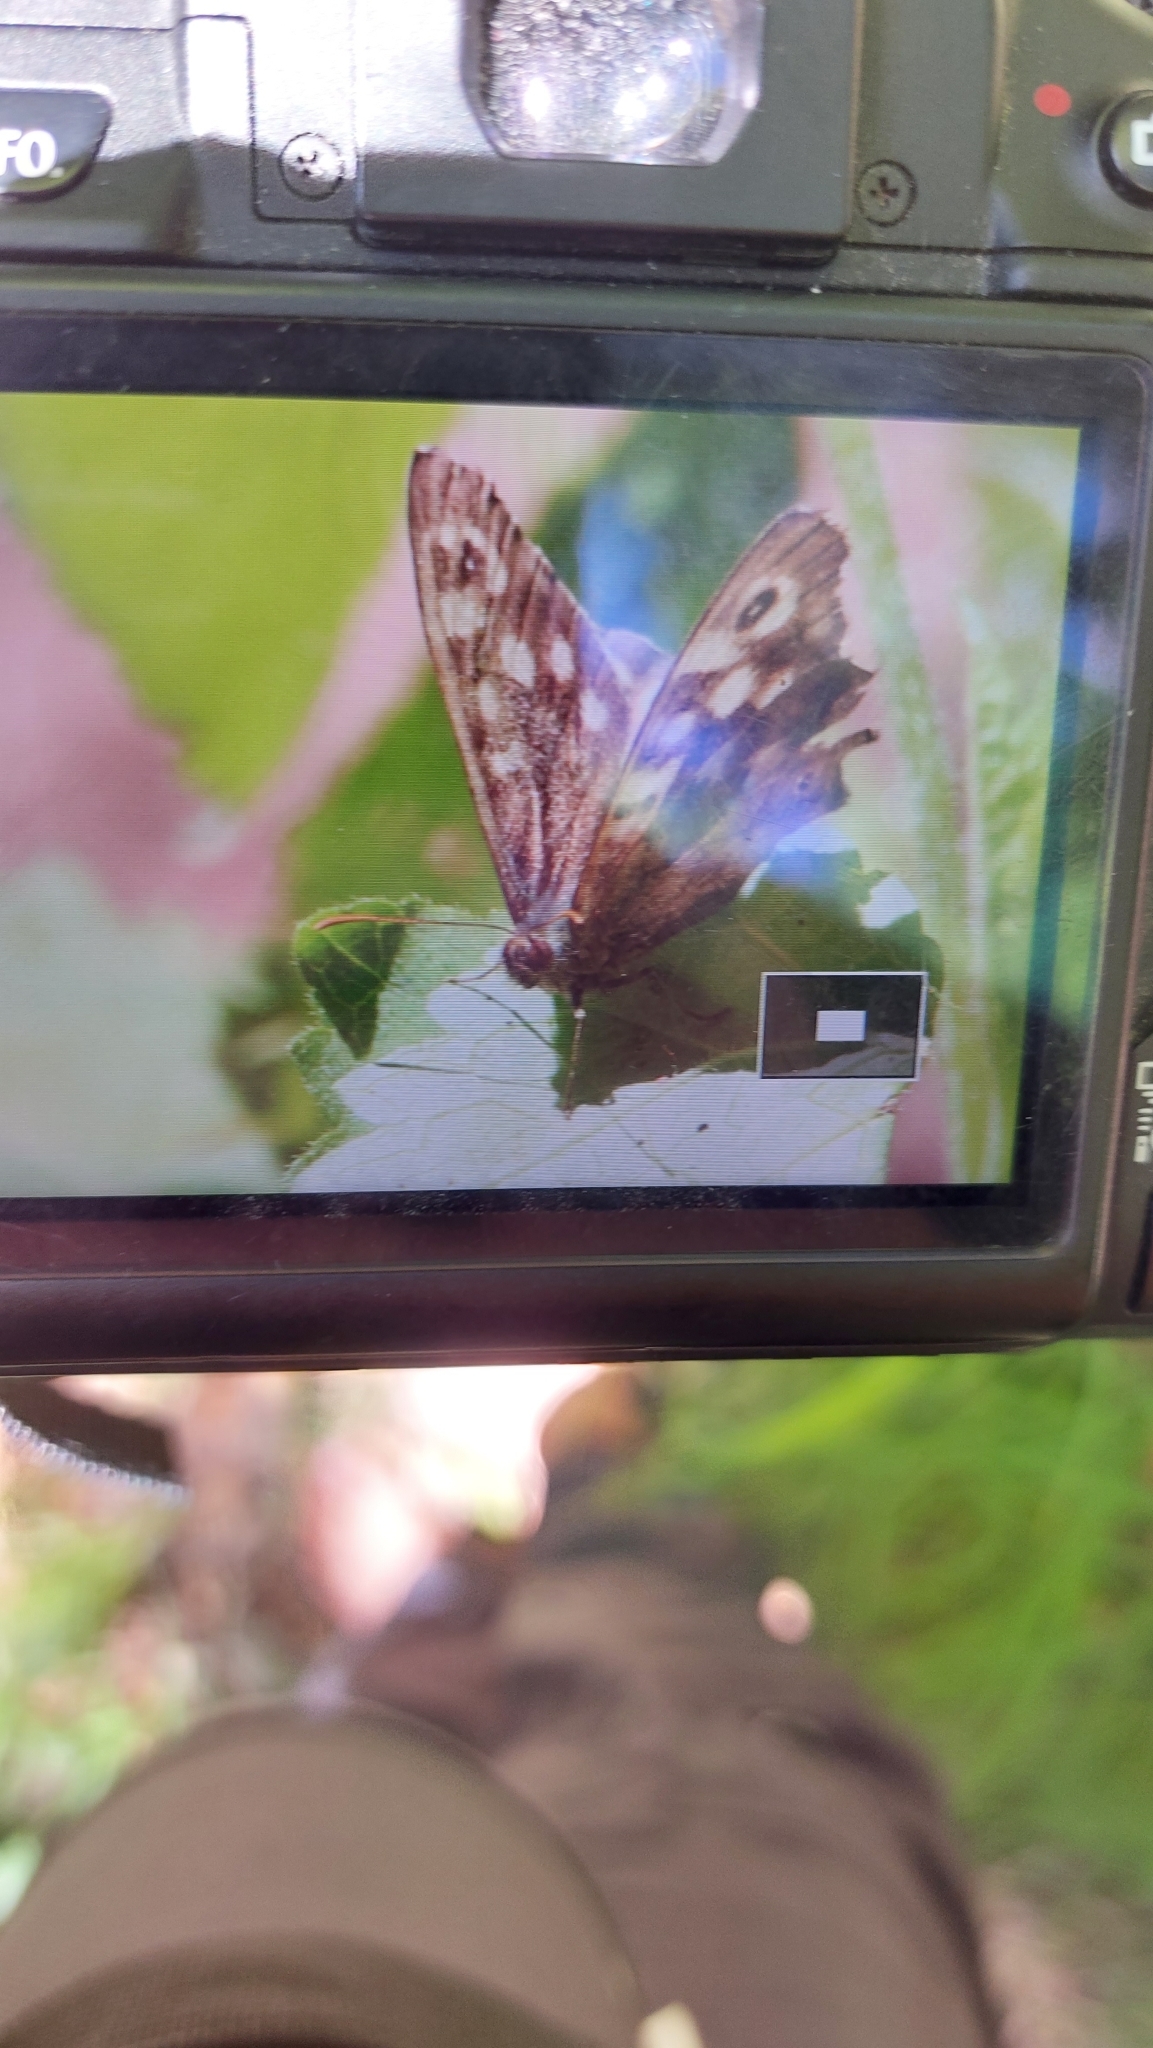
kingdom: Animalia
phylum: Arthropoda
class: Insecta
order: Lepidoptera
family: Nymphalidae
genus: Pararge
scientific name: Pararge aegeria
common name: Speckled wood
